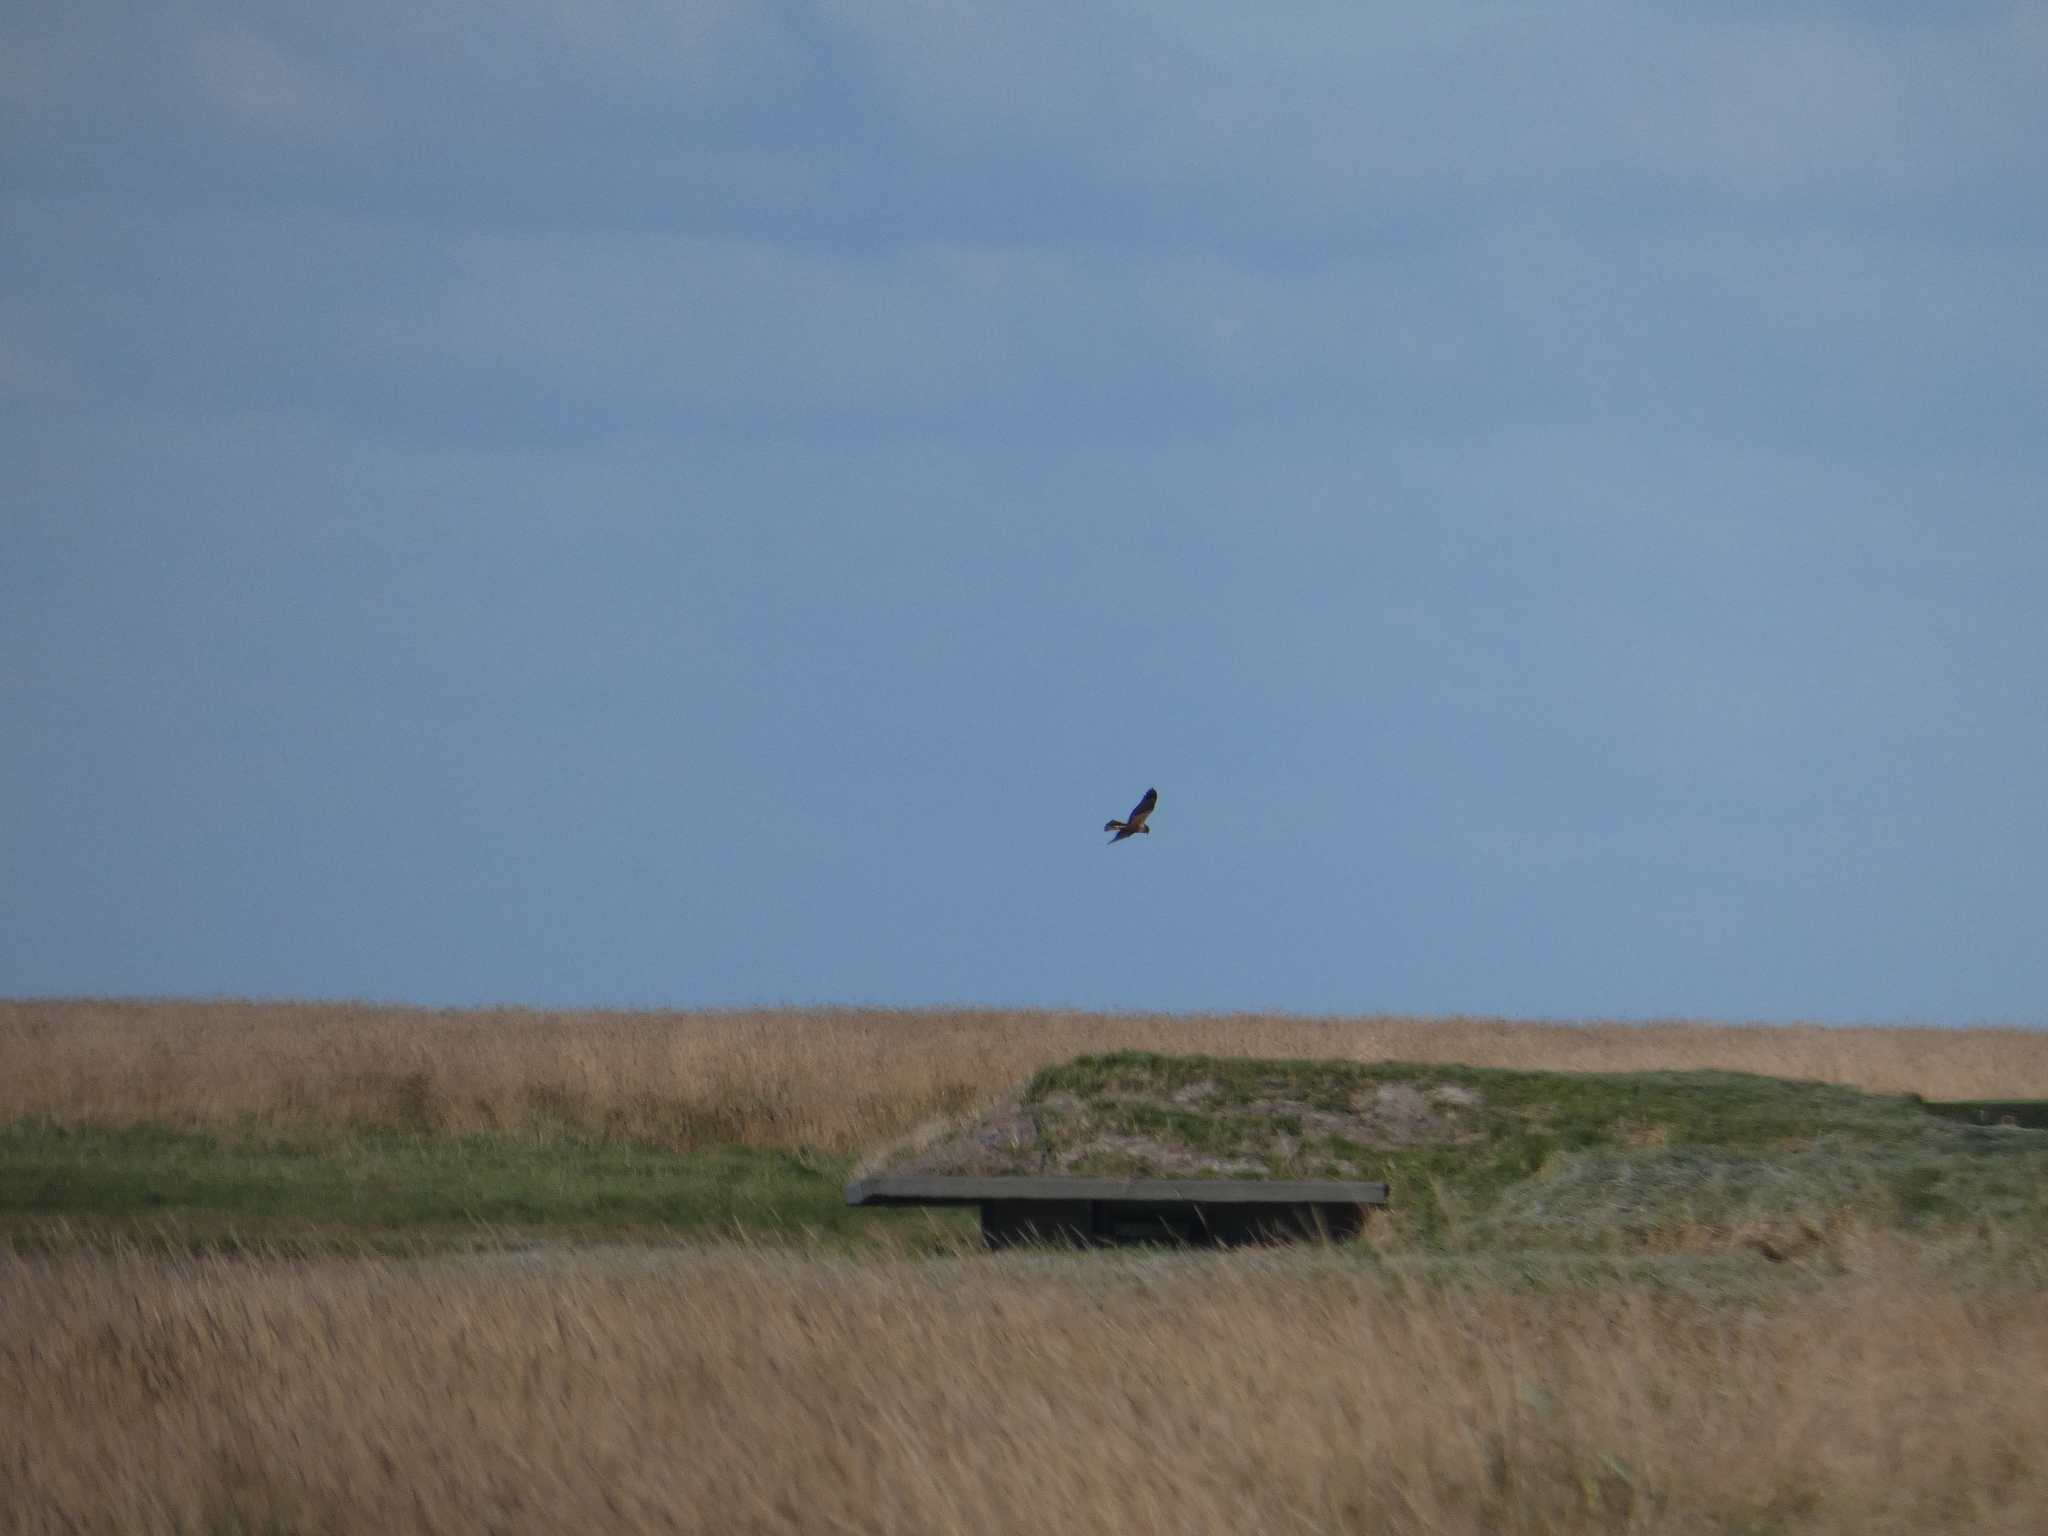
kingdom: Animalia
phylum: Chordata
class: Aves
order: Accipitriformes
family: Accipitridae
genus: Circus
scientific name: Circus aeruginosus
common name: Western marsh harrier
